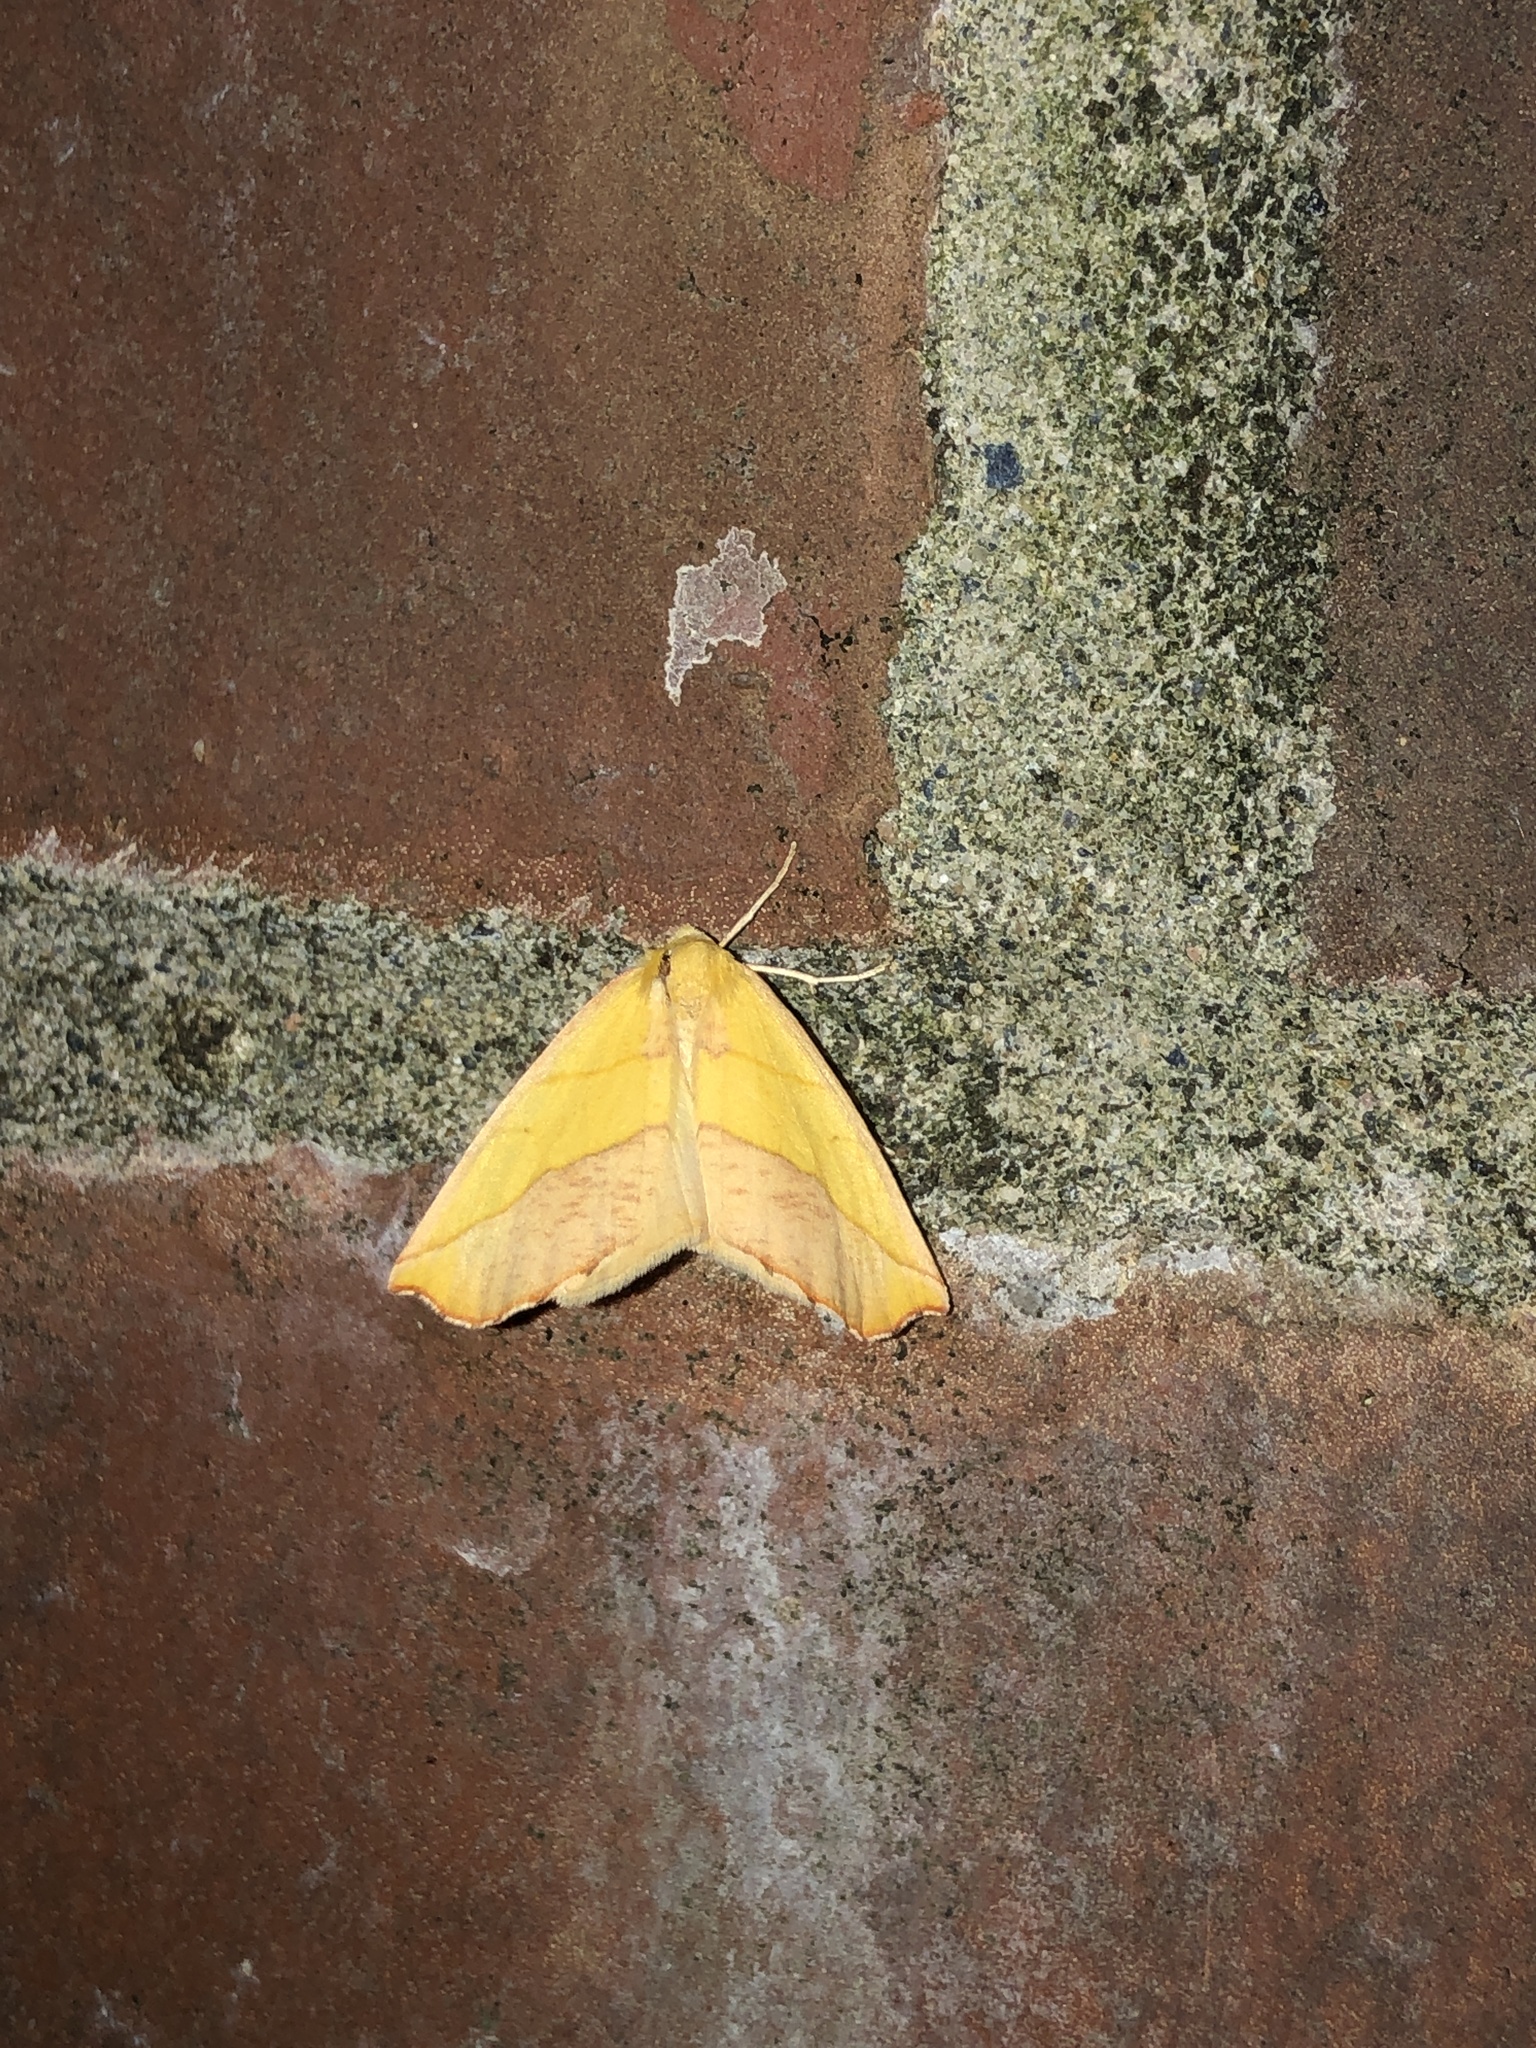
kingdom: Animalia
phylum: Arthropoda
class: Insecta
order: Lepidoptera
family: Geometridae
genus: Sicya
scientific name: Sicya macularia
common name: Sharp-lined yellow
